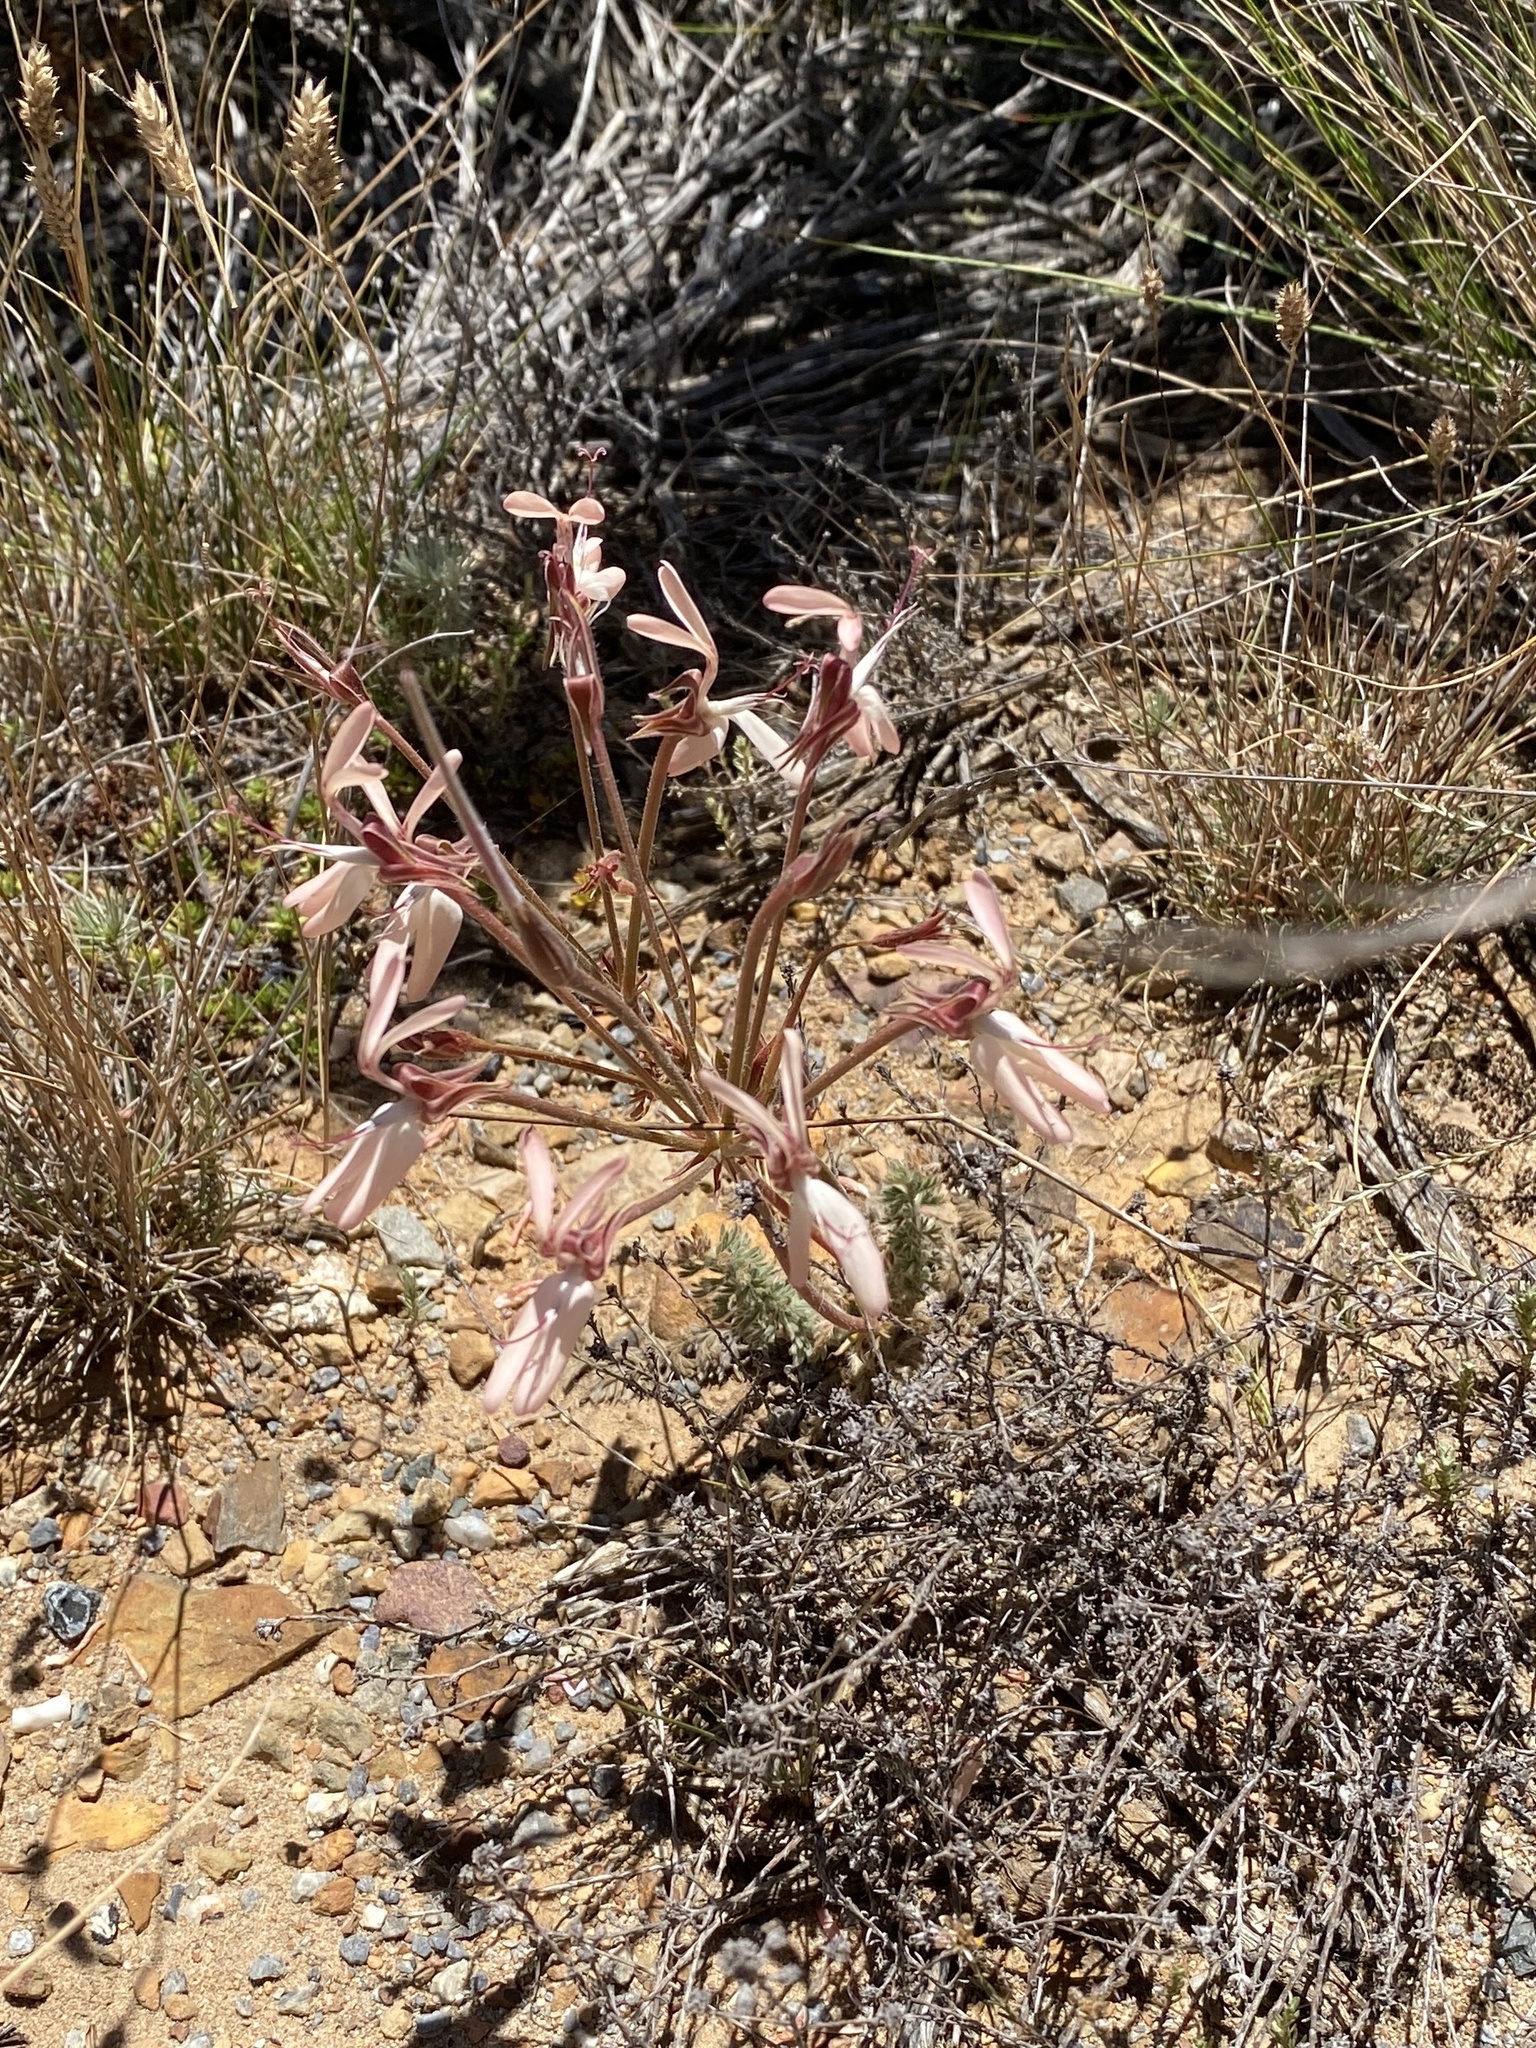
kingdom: Plantae
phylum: Tracheophyta
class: Magnoliopsida
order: Geraniales
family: Geraniaceae
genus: Pelargonium
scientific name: Pelargonium rapaceum
